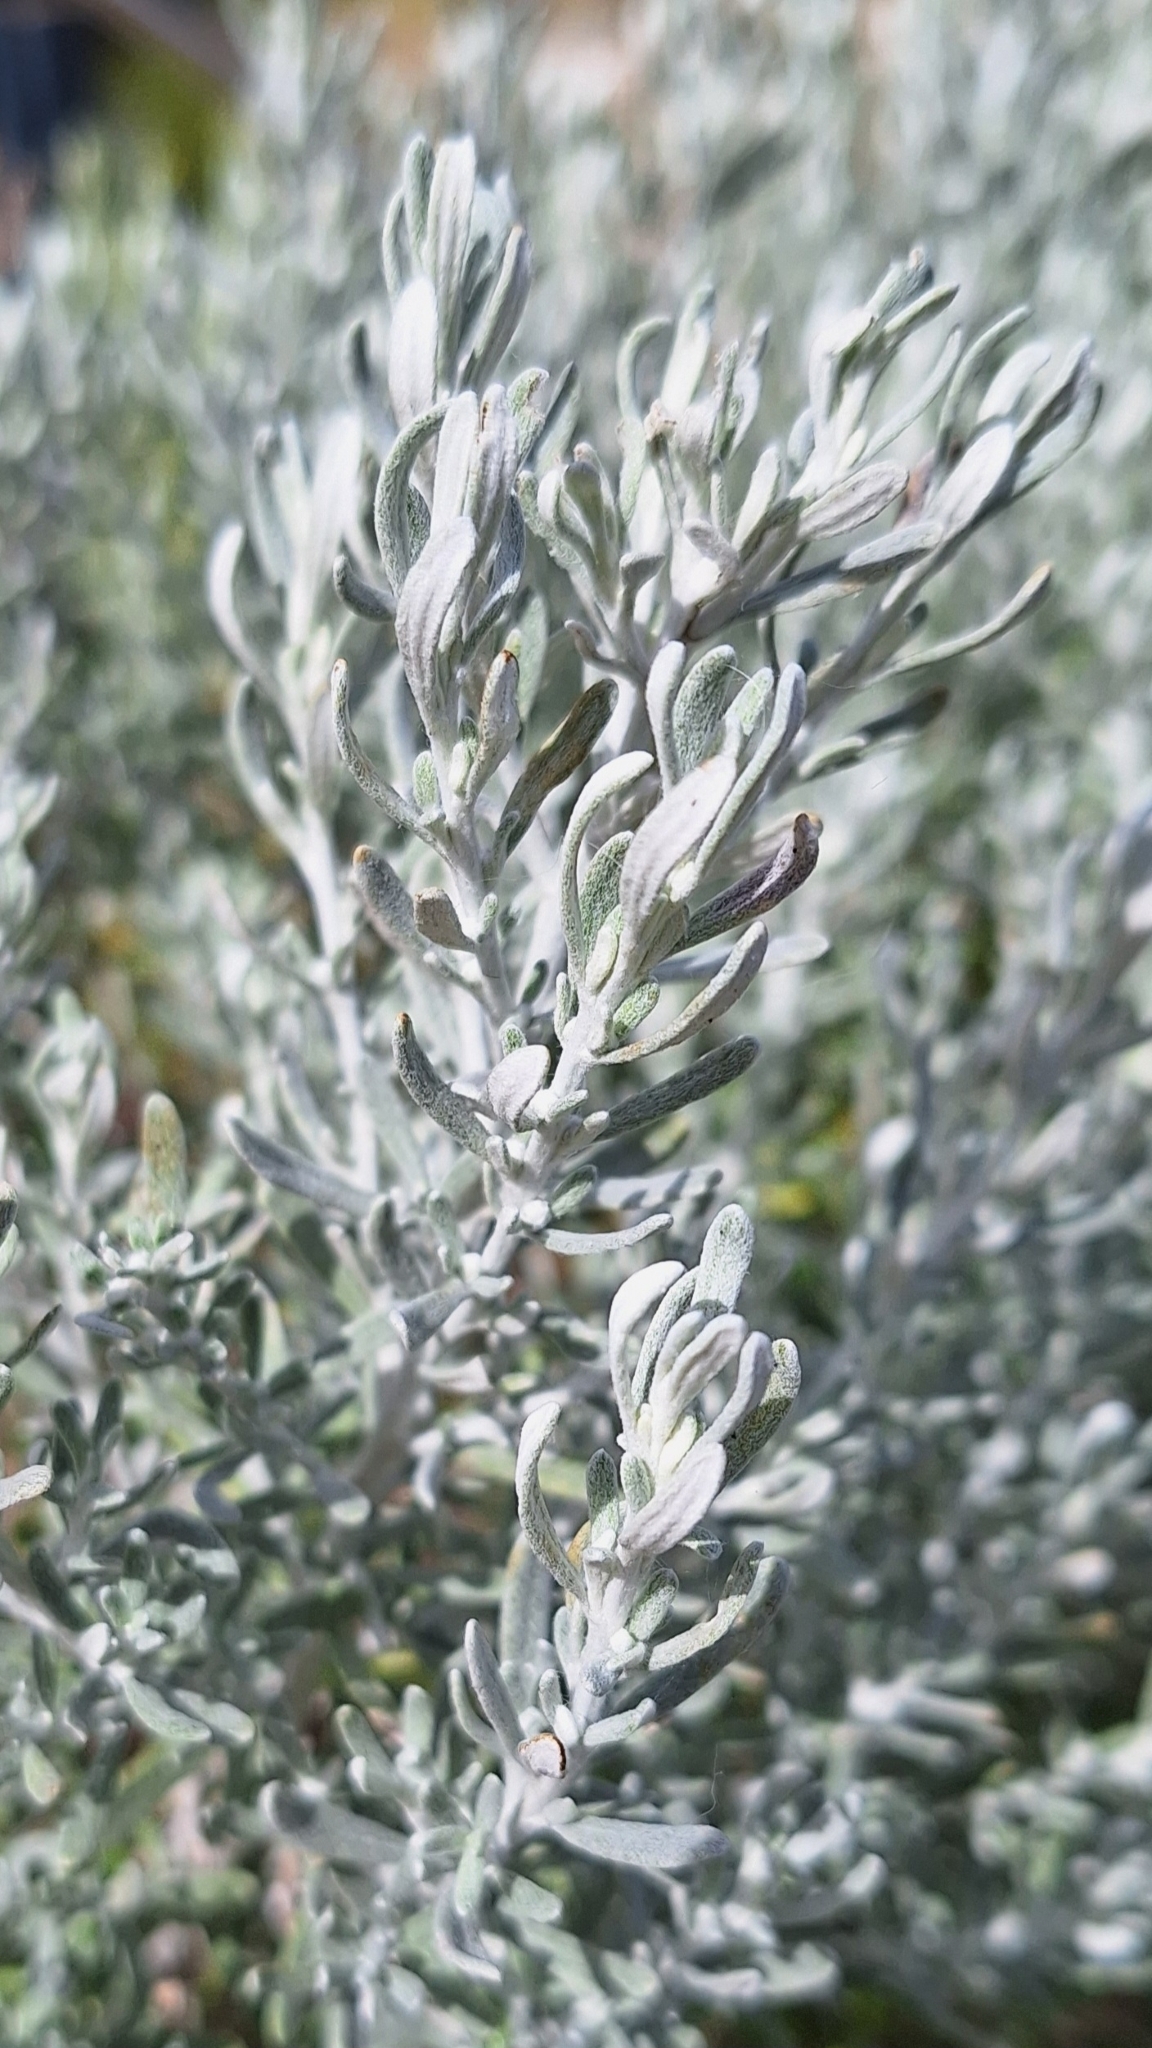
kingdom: Plantae
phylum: Tracheophyta
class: Magnoliopsida
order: Asterales
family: Asteraceae
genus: Olearia
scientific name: Olearia axillaris
